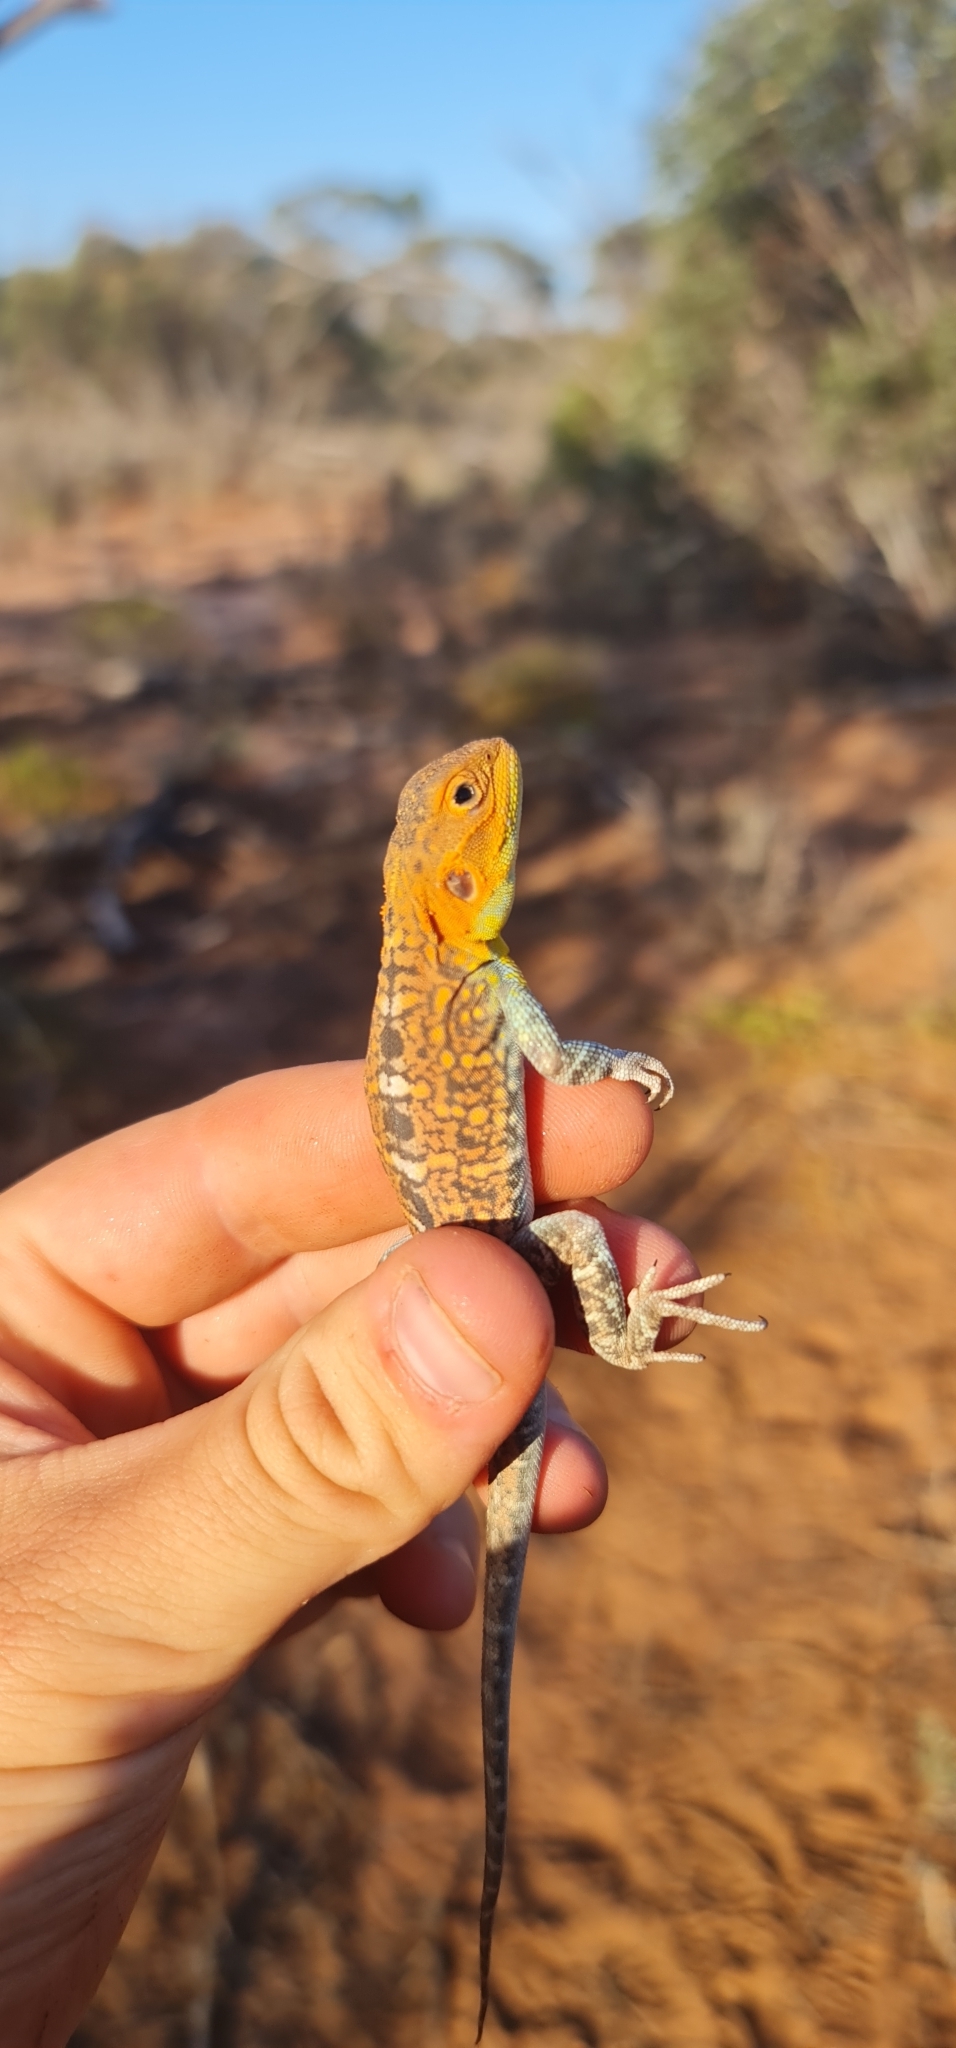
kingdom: Animalia
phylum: Chordata
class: Squamata
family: Agamidae
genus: Ctenophorus
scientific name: Ctenophorus pictus
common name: Painted dragon
